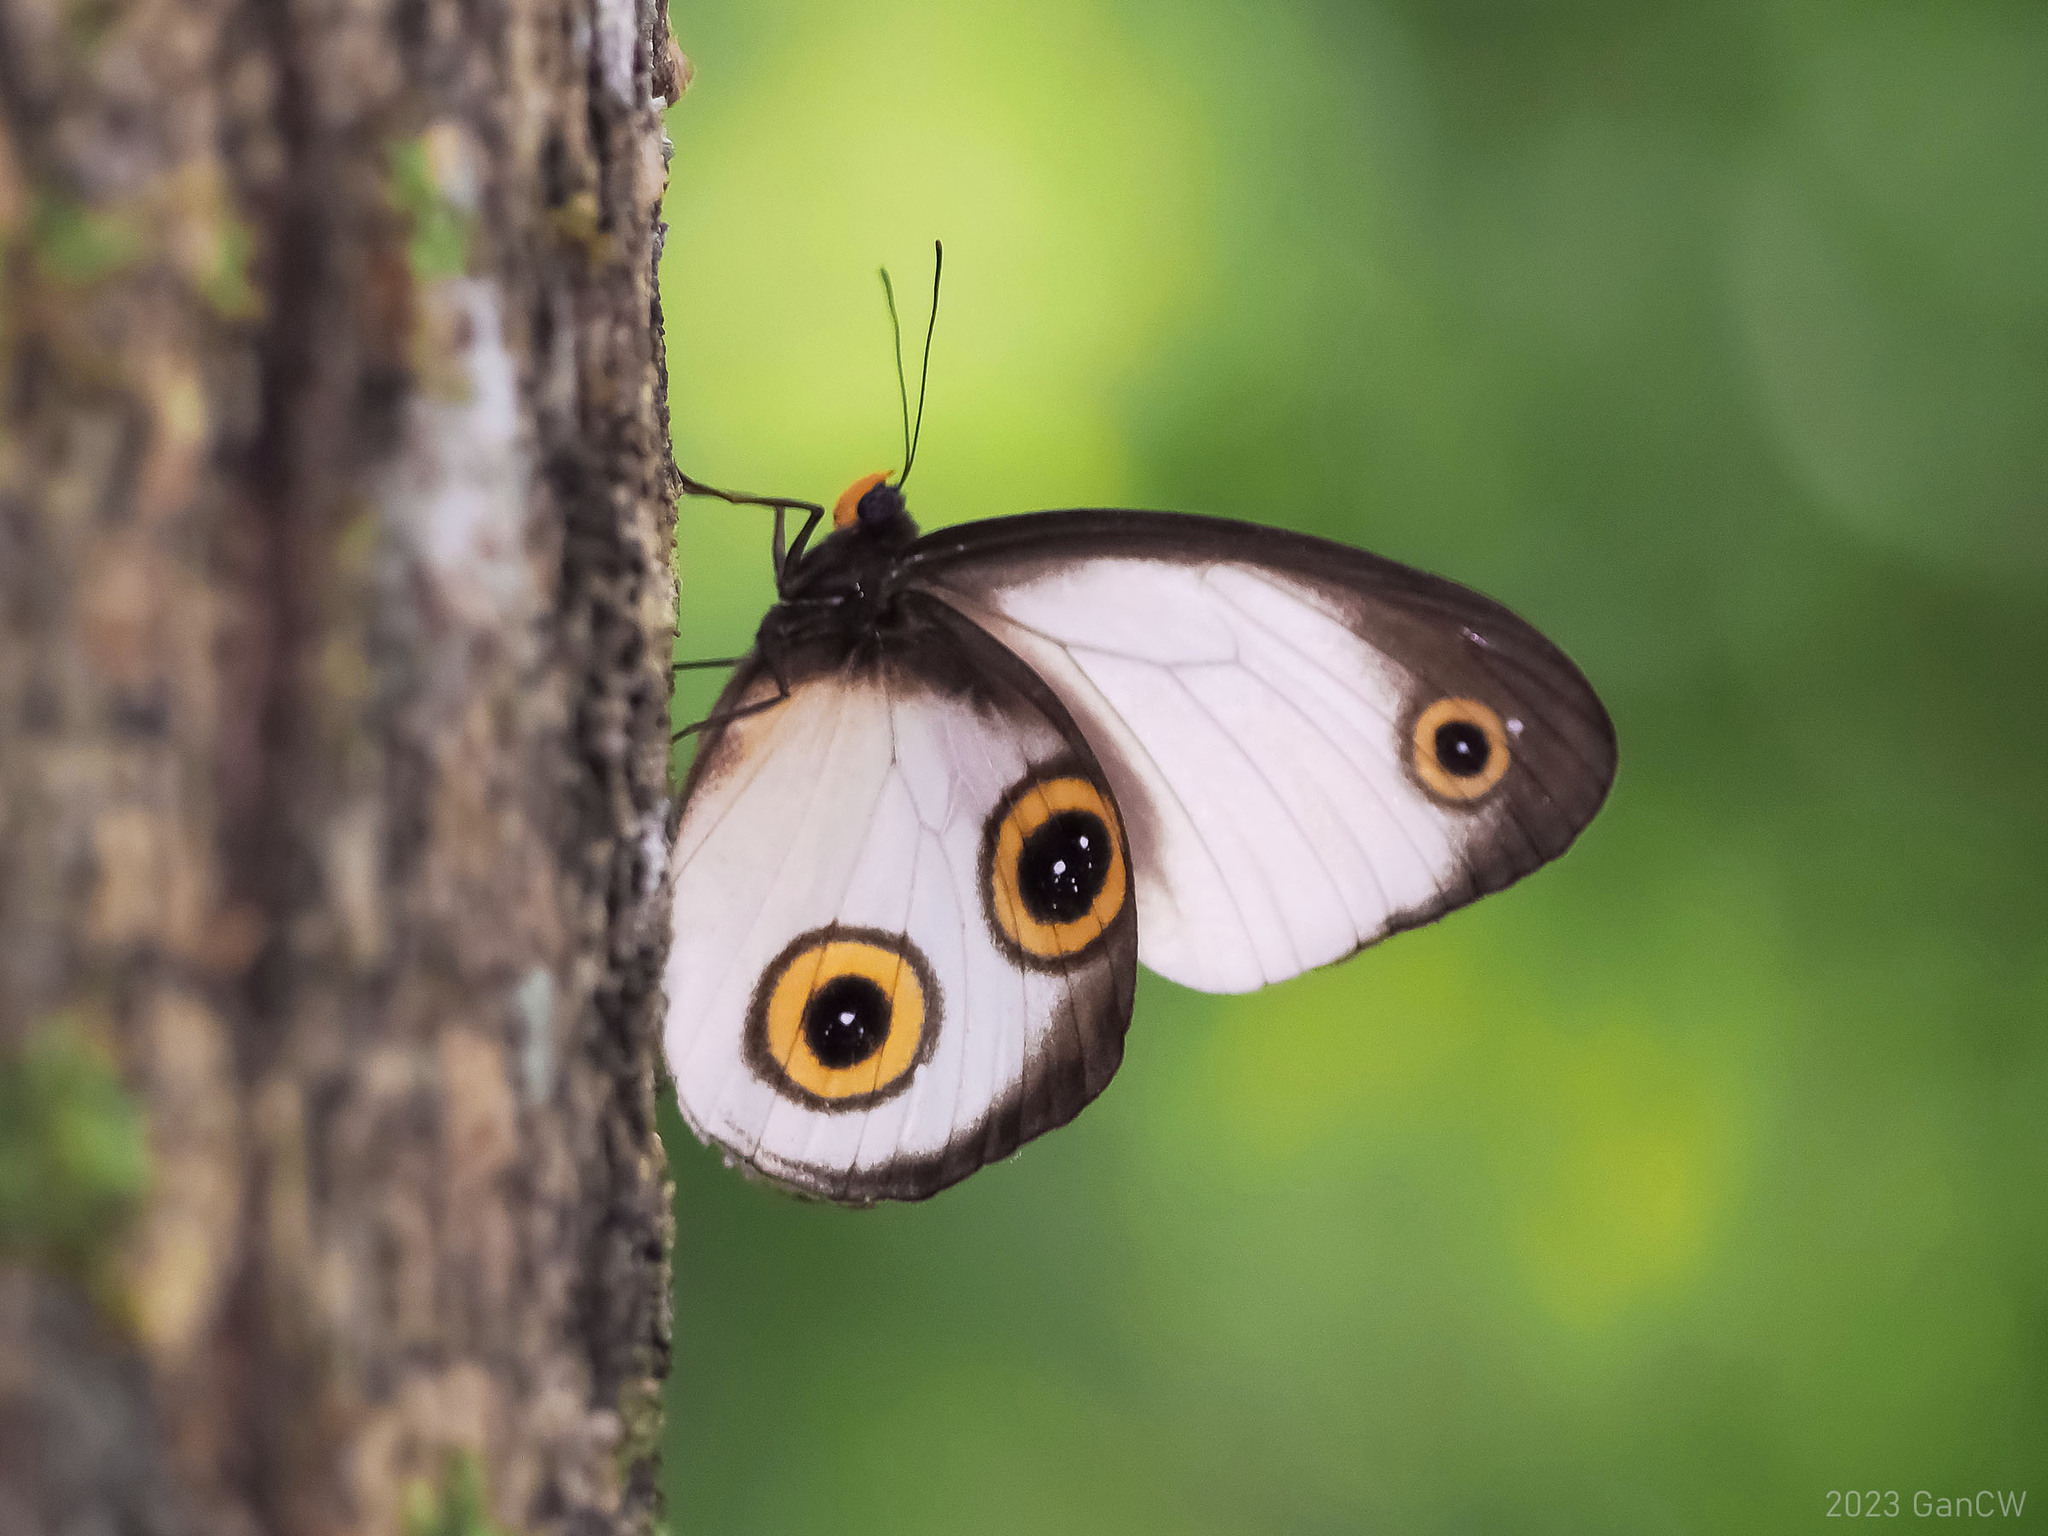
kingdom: Animalia
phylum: Arthropoda
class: Insecta
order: Lepidoptera
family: Nymphalidae
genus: Hyantis
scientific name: Hyantis hodeva
